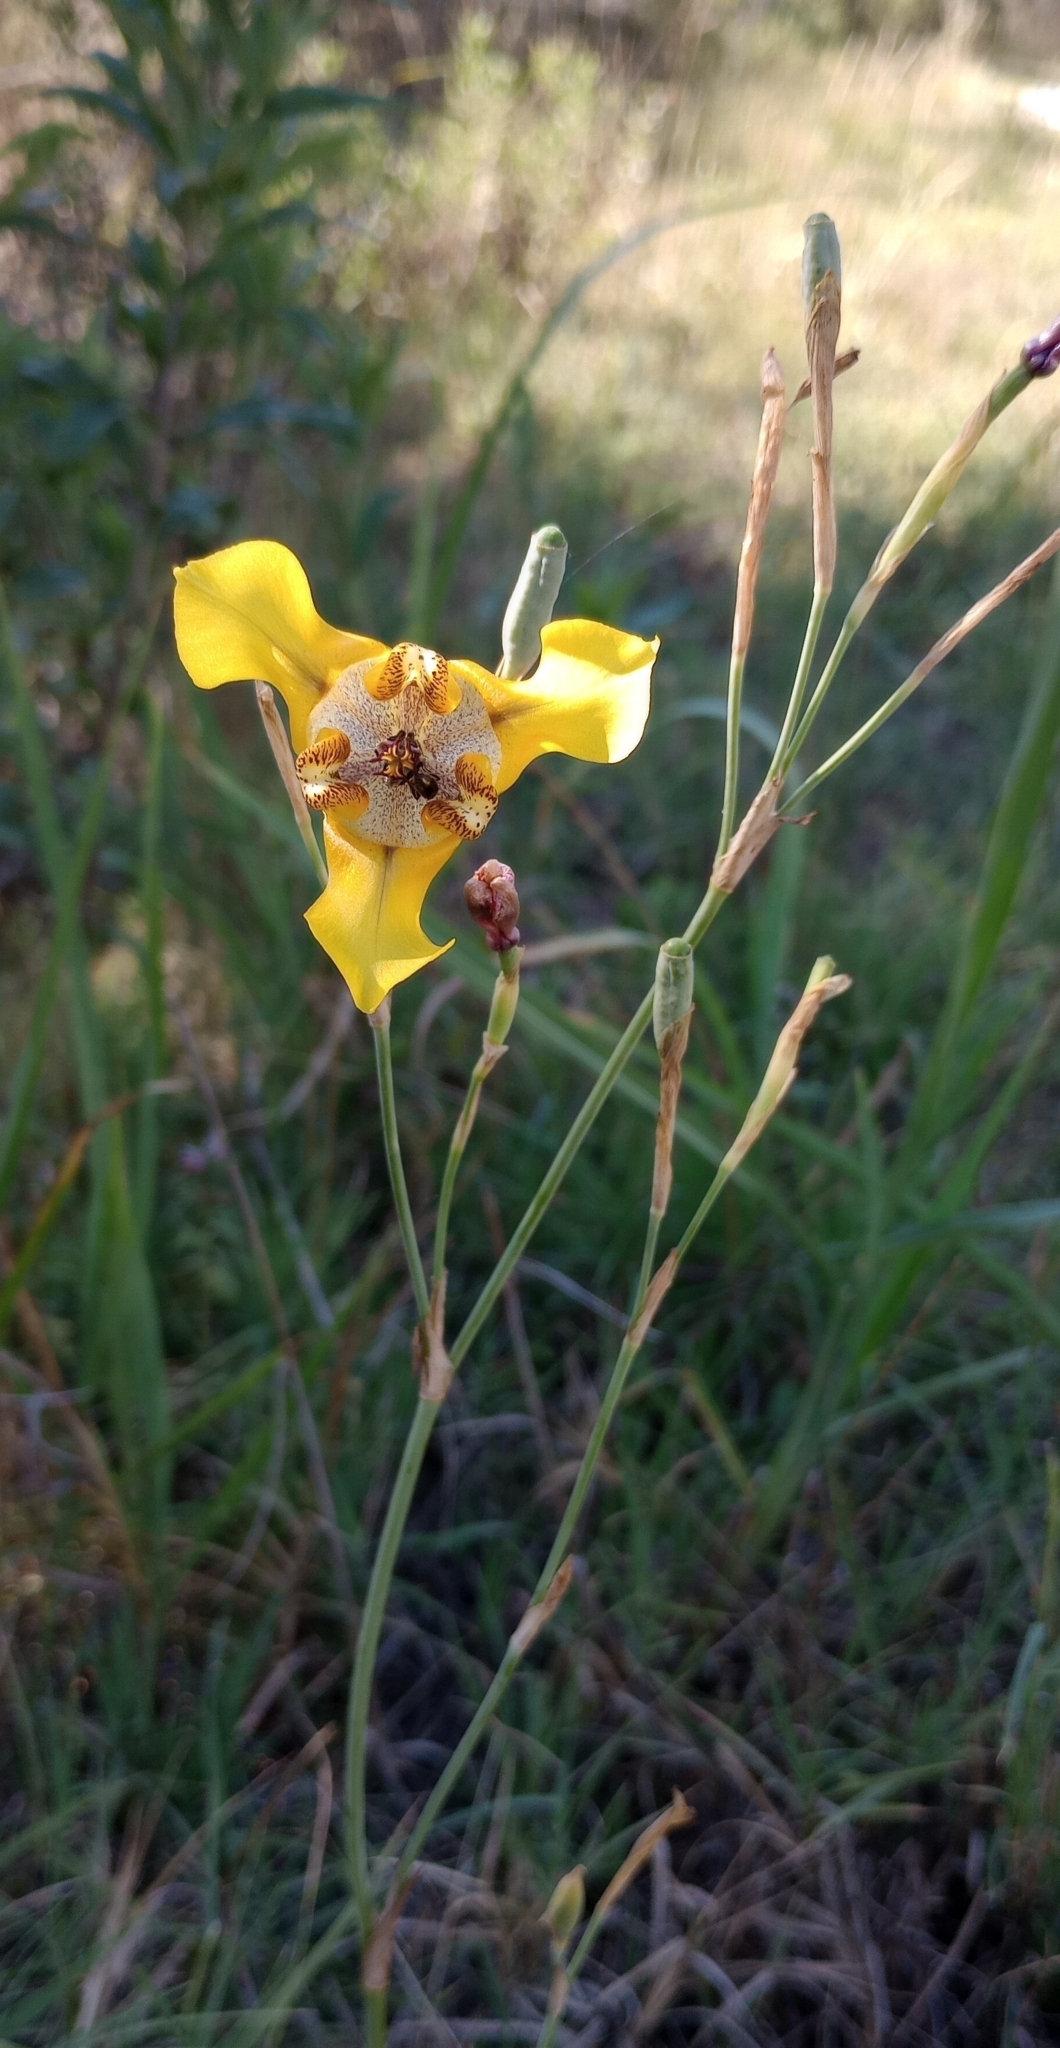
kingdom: Plantae
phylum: Tracheophyta
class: Liliopsida
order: Asparagales
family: Iridaceae
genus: Cypella
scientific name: Cypella herbertii
